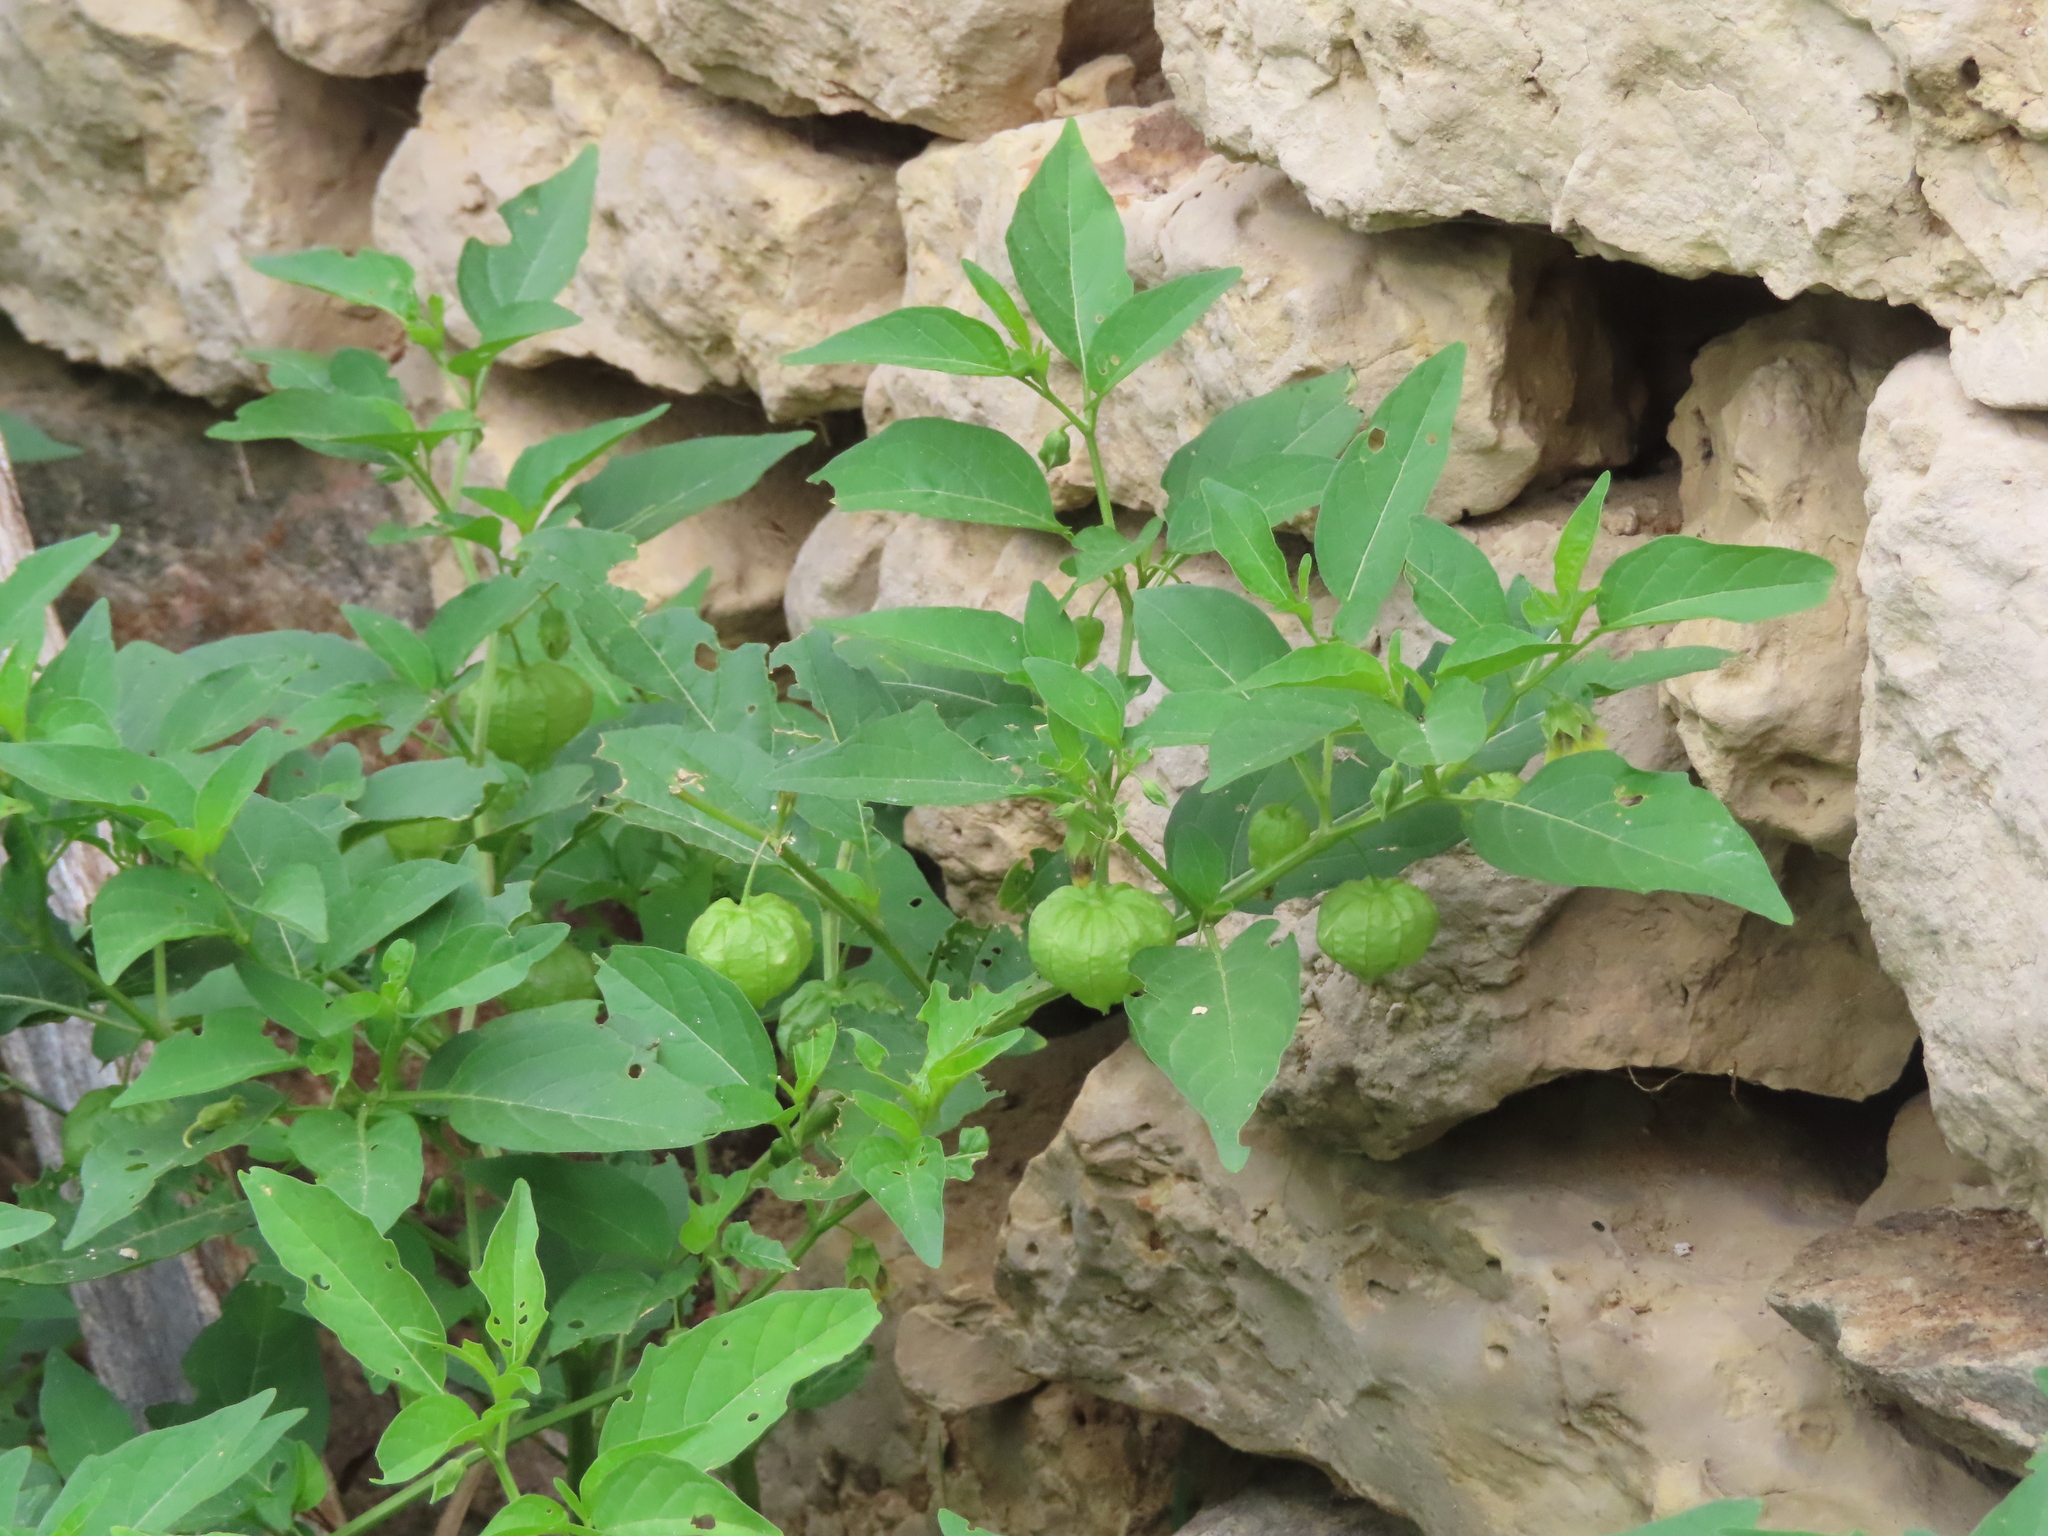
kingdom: Plantae
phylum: Tracheophyta
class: Magnoliopsida
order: Solanales
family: Solanaceae
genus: Physalis
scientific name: Physalis longifolia
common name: Common ground-cherry
